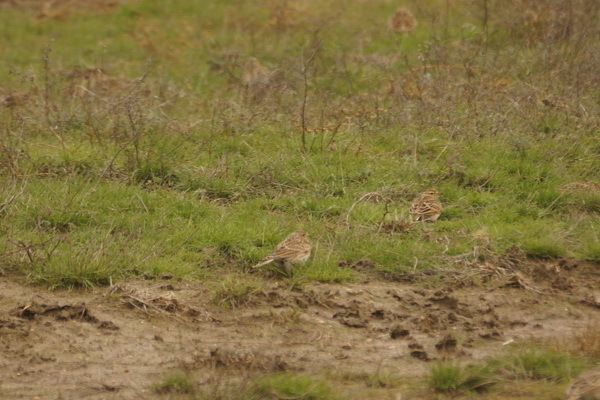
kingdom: Animalia
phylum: Chordata
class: Aves
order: Passeriformes
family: Alaudidae
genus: Alauda
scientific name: Alauda arvensis
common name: Eurasian skylark
